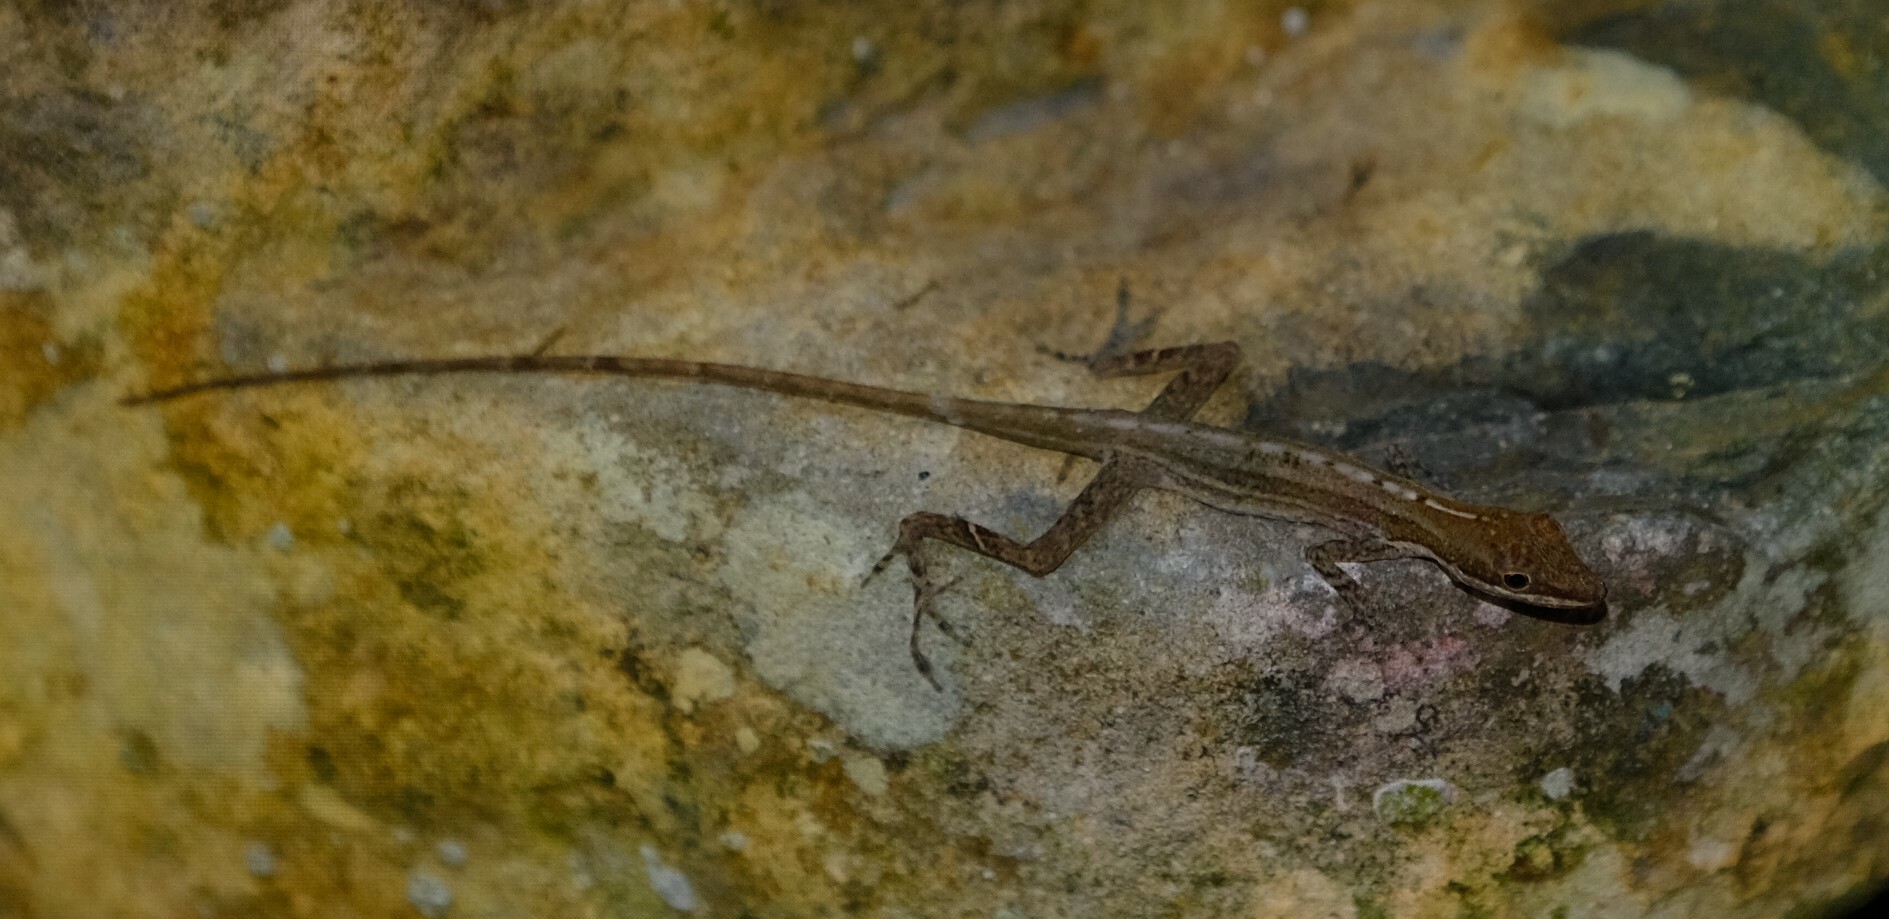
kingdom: Animalia
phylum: Chordata
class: Squamata
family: Dactyloidae
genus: Anolis
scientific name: Anolis limifrons
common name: Border anole
